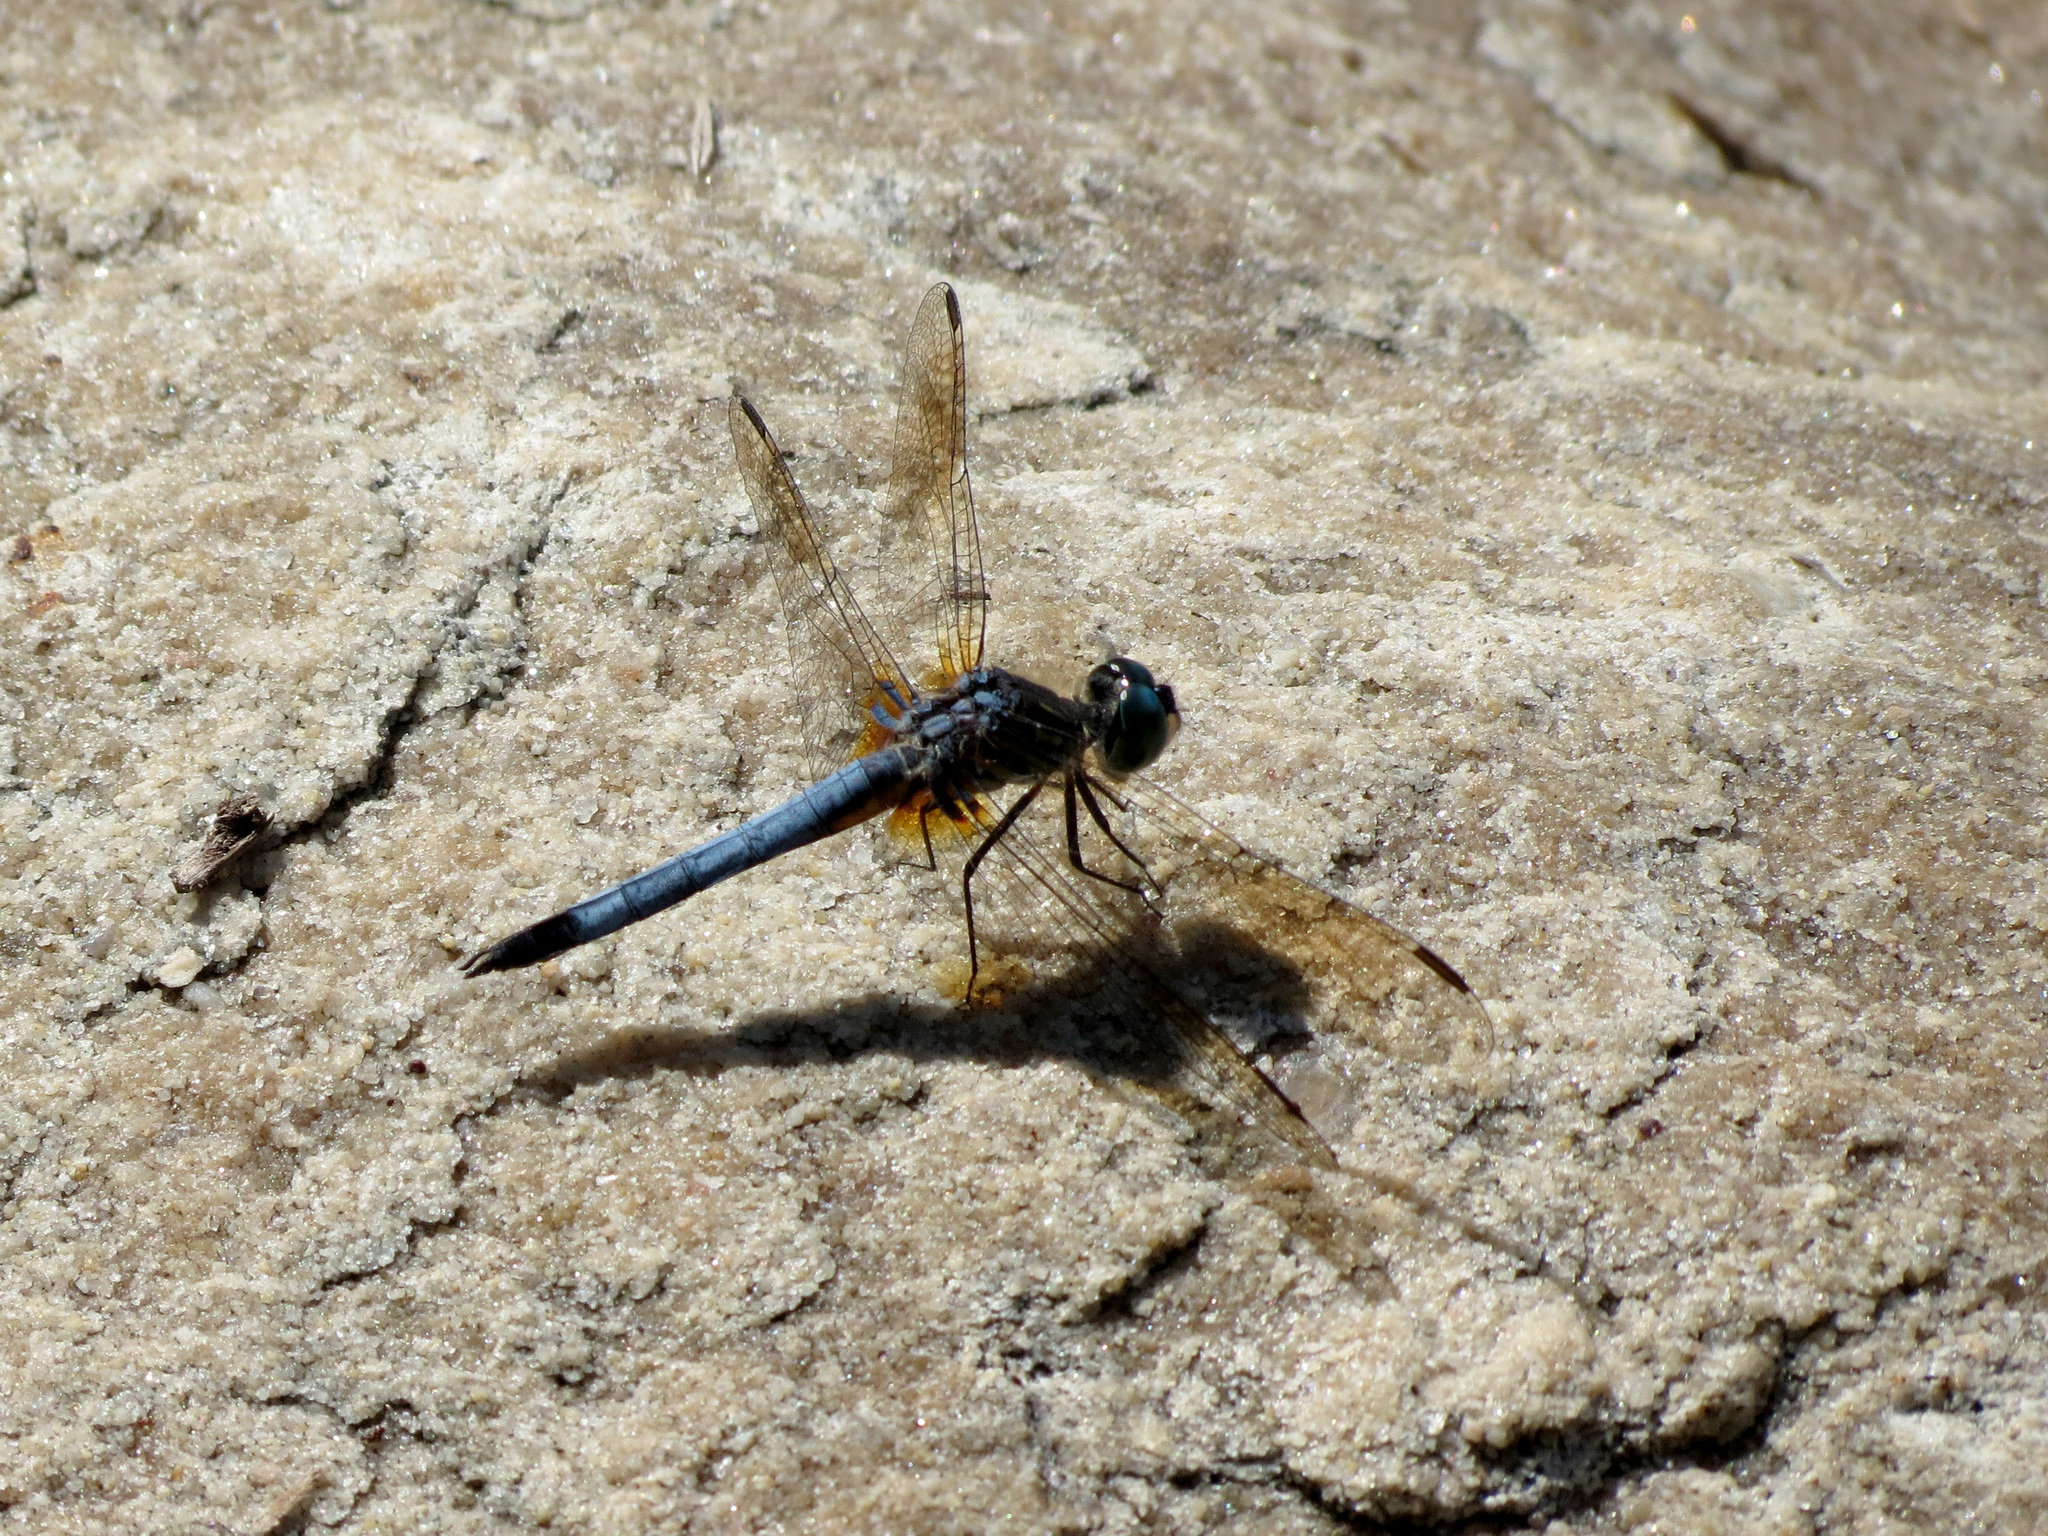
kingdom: Animalia
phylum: Arthropoda
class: Insecta
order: Odonata
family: Libellulidae
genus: Pachydiplax
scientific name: Pachydiplax longipennis
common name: Blue dasher
